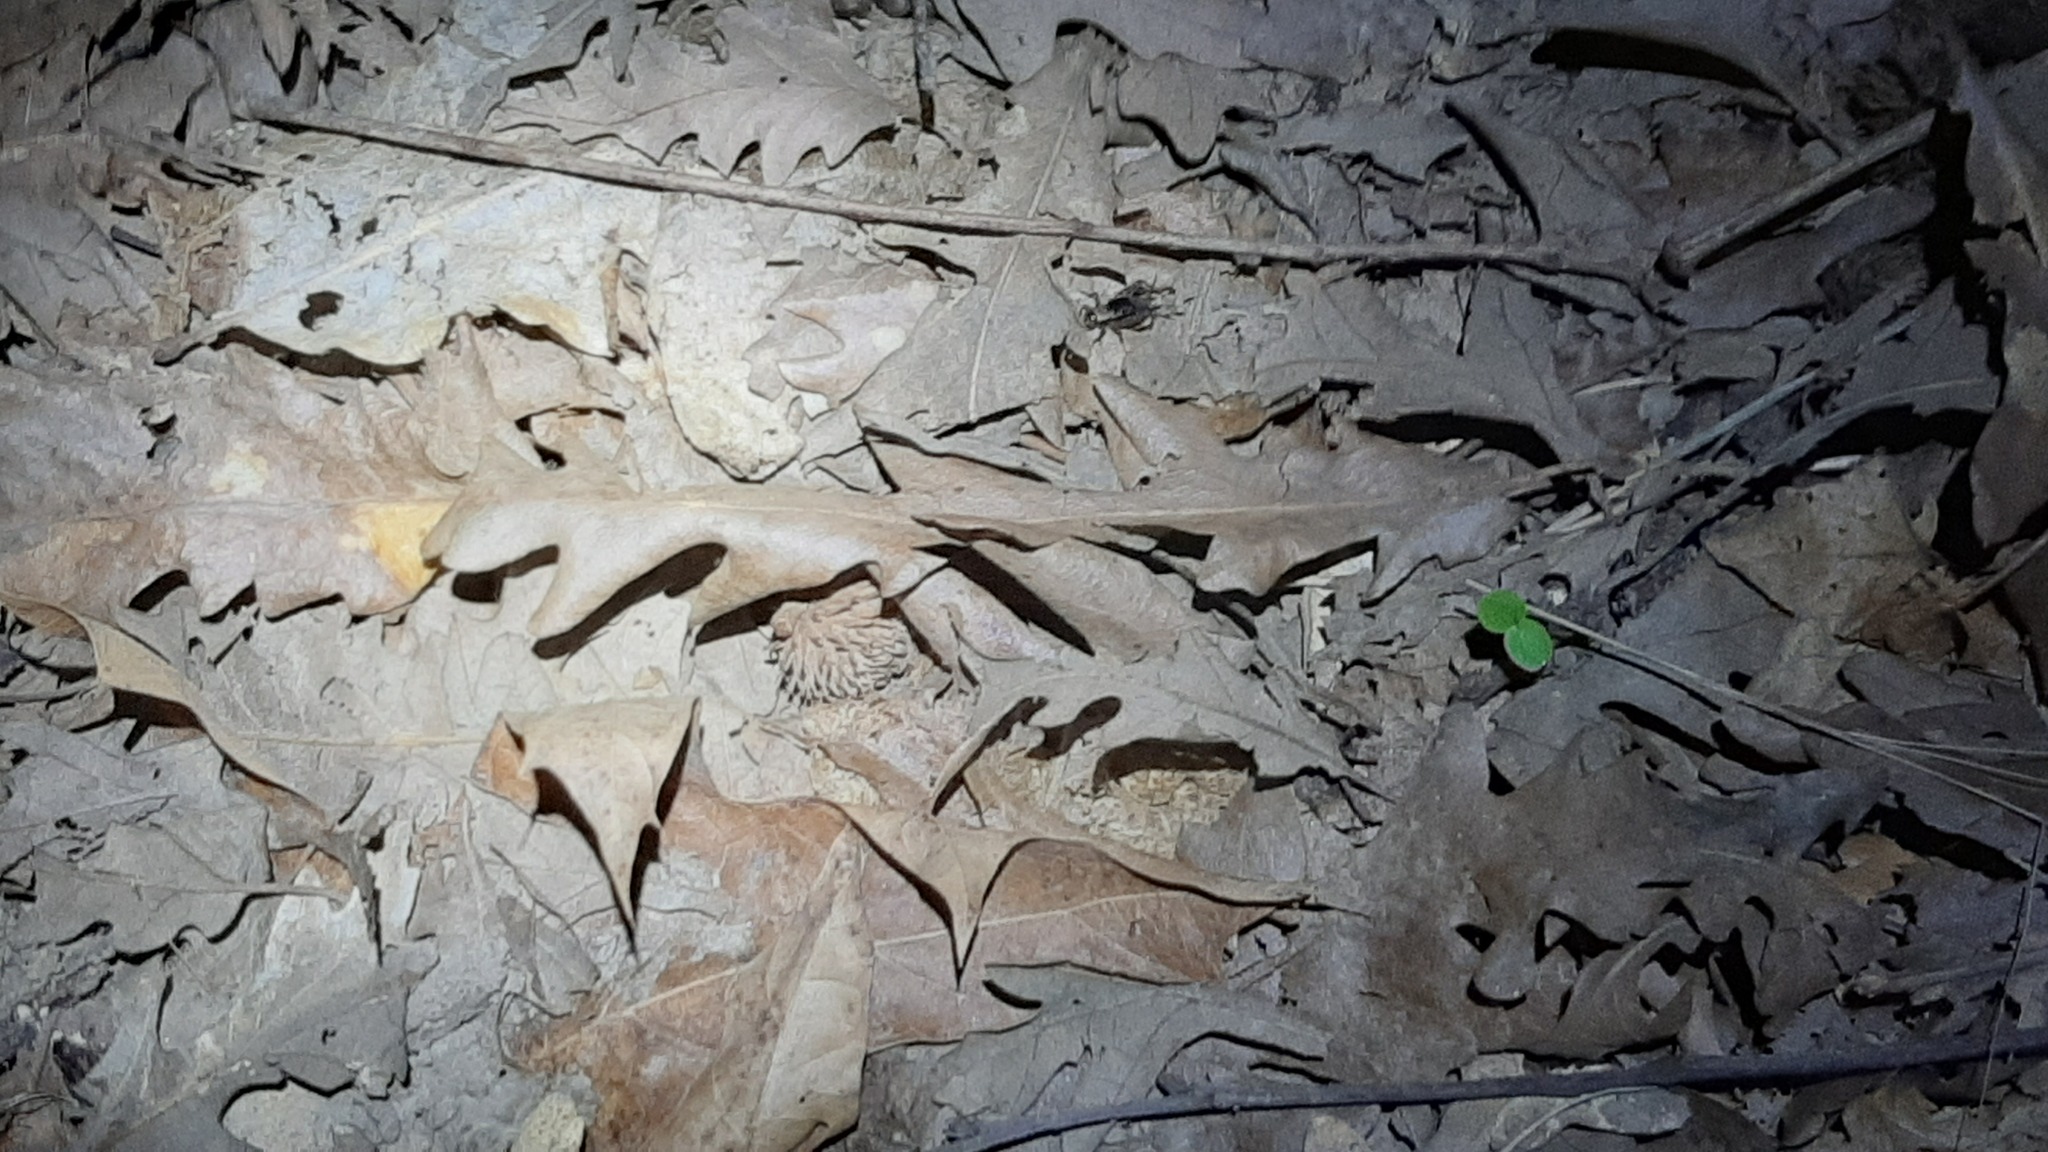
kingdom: Animalia
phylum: Arthropoda
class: Insecta
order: Orthoptera
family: Trigonidiidae
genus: Nemobius
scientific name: Nemobius sylvestris
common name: Wood-cricket
